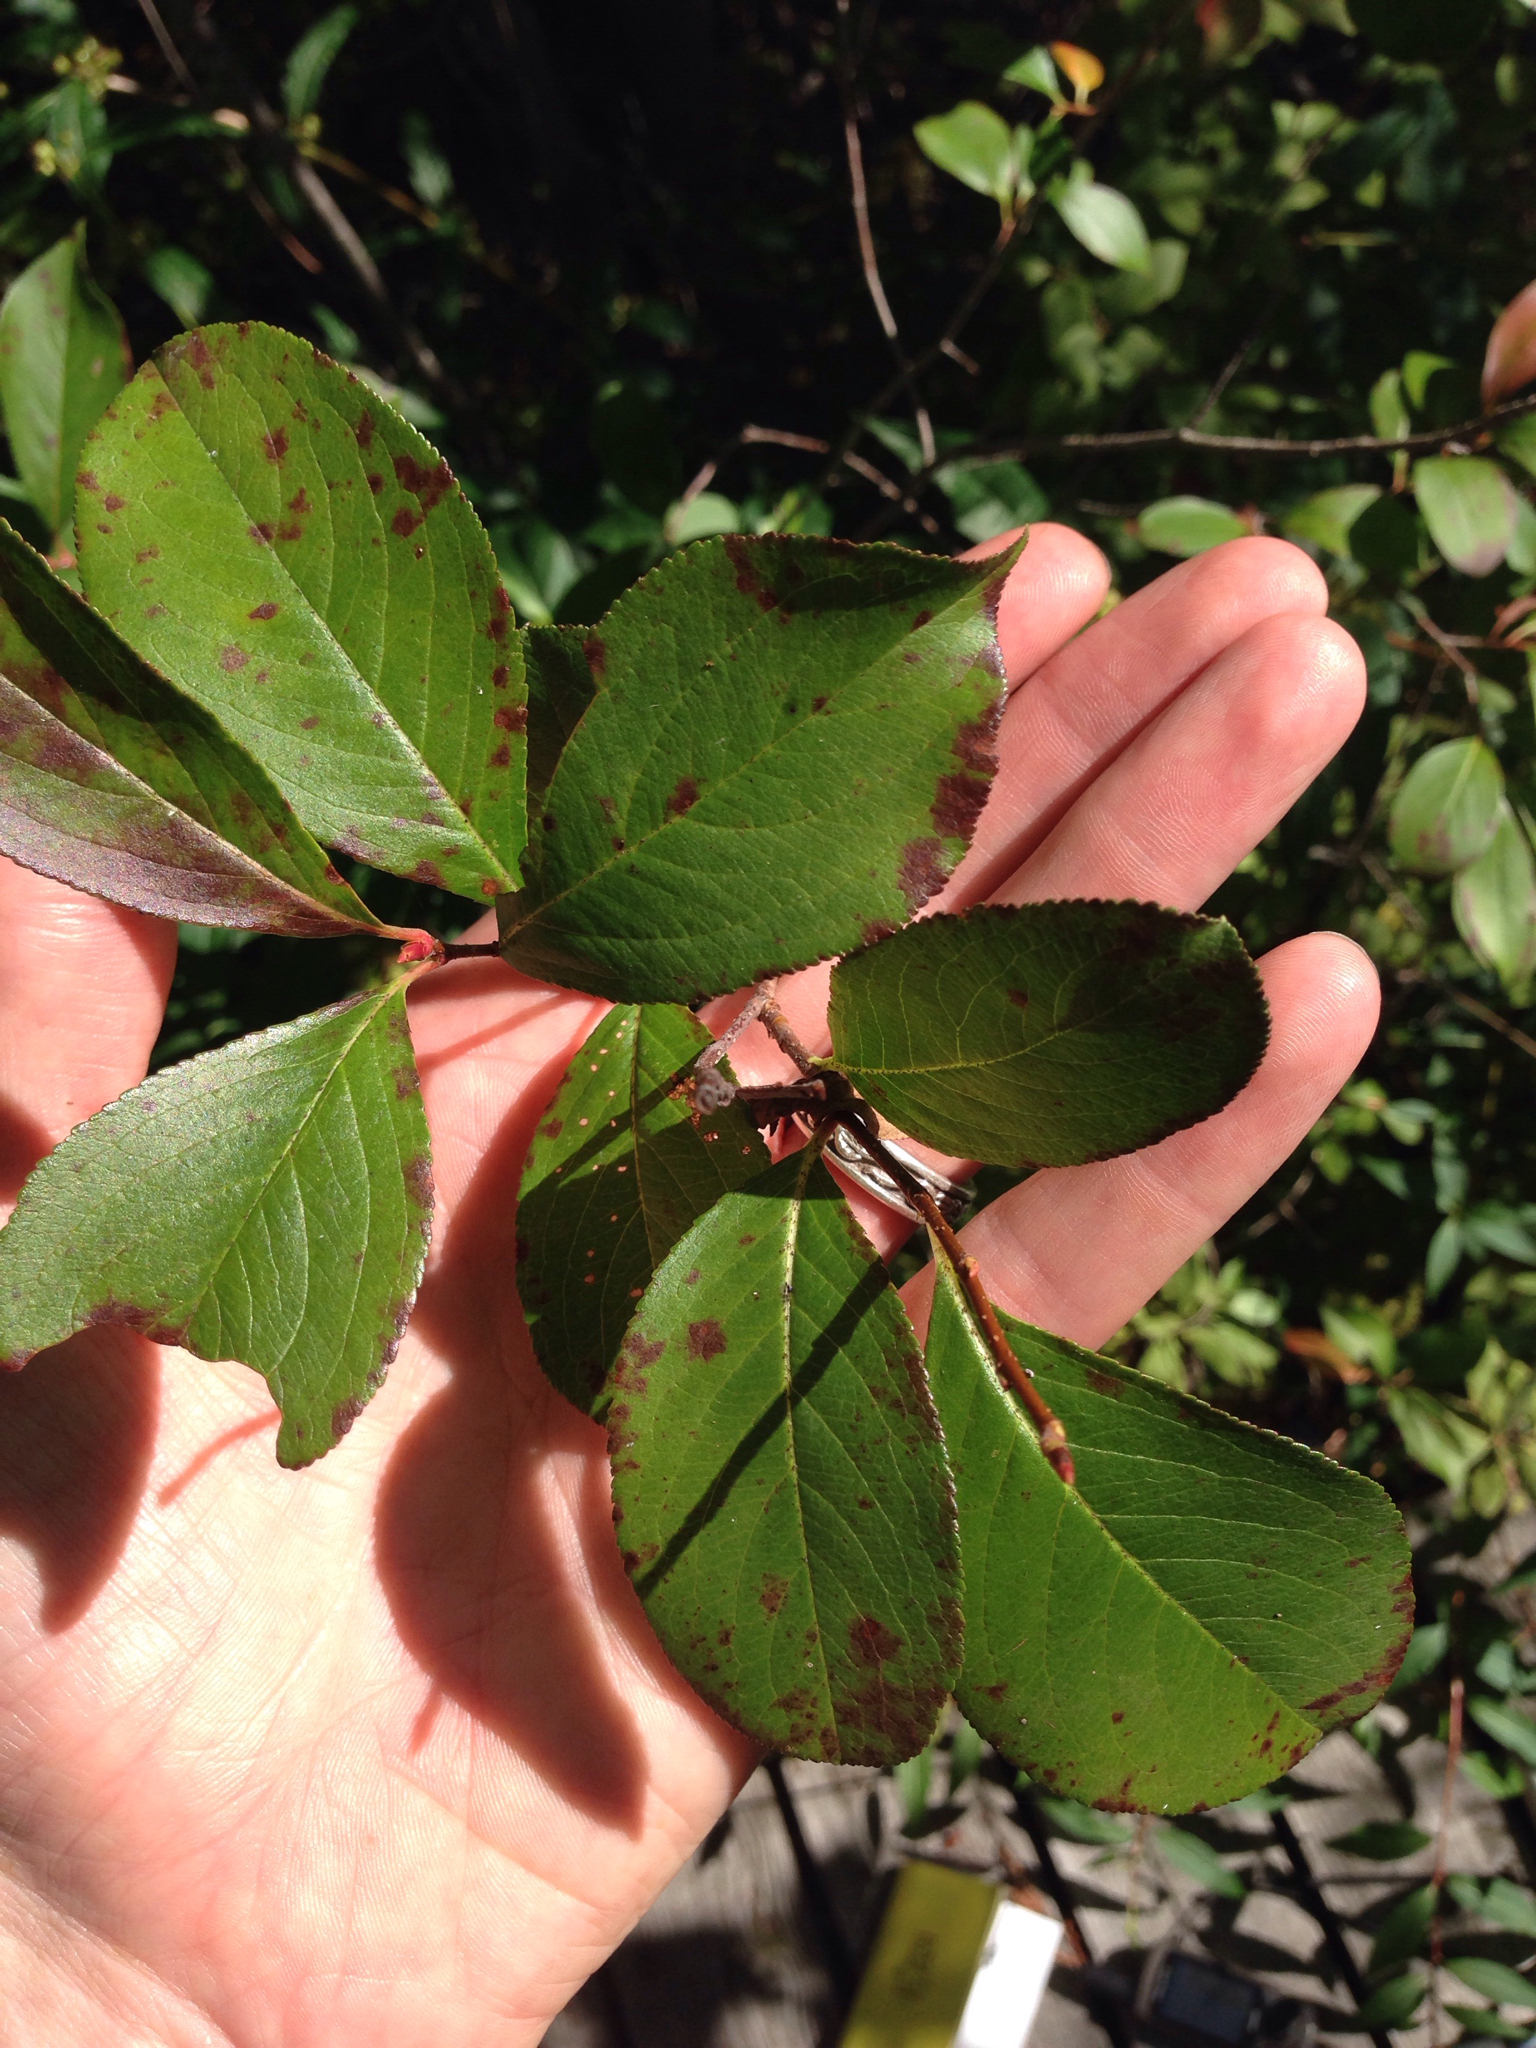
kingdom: Plantae
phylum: Tracheophyta
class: Magnoliopsida
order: Rosales
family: Rosaceae
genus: Aronia
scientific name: Aronia melanocarpa
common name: Black chokeberry
